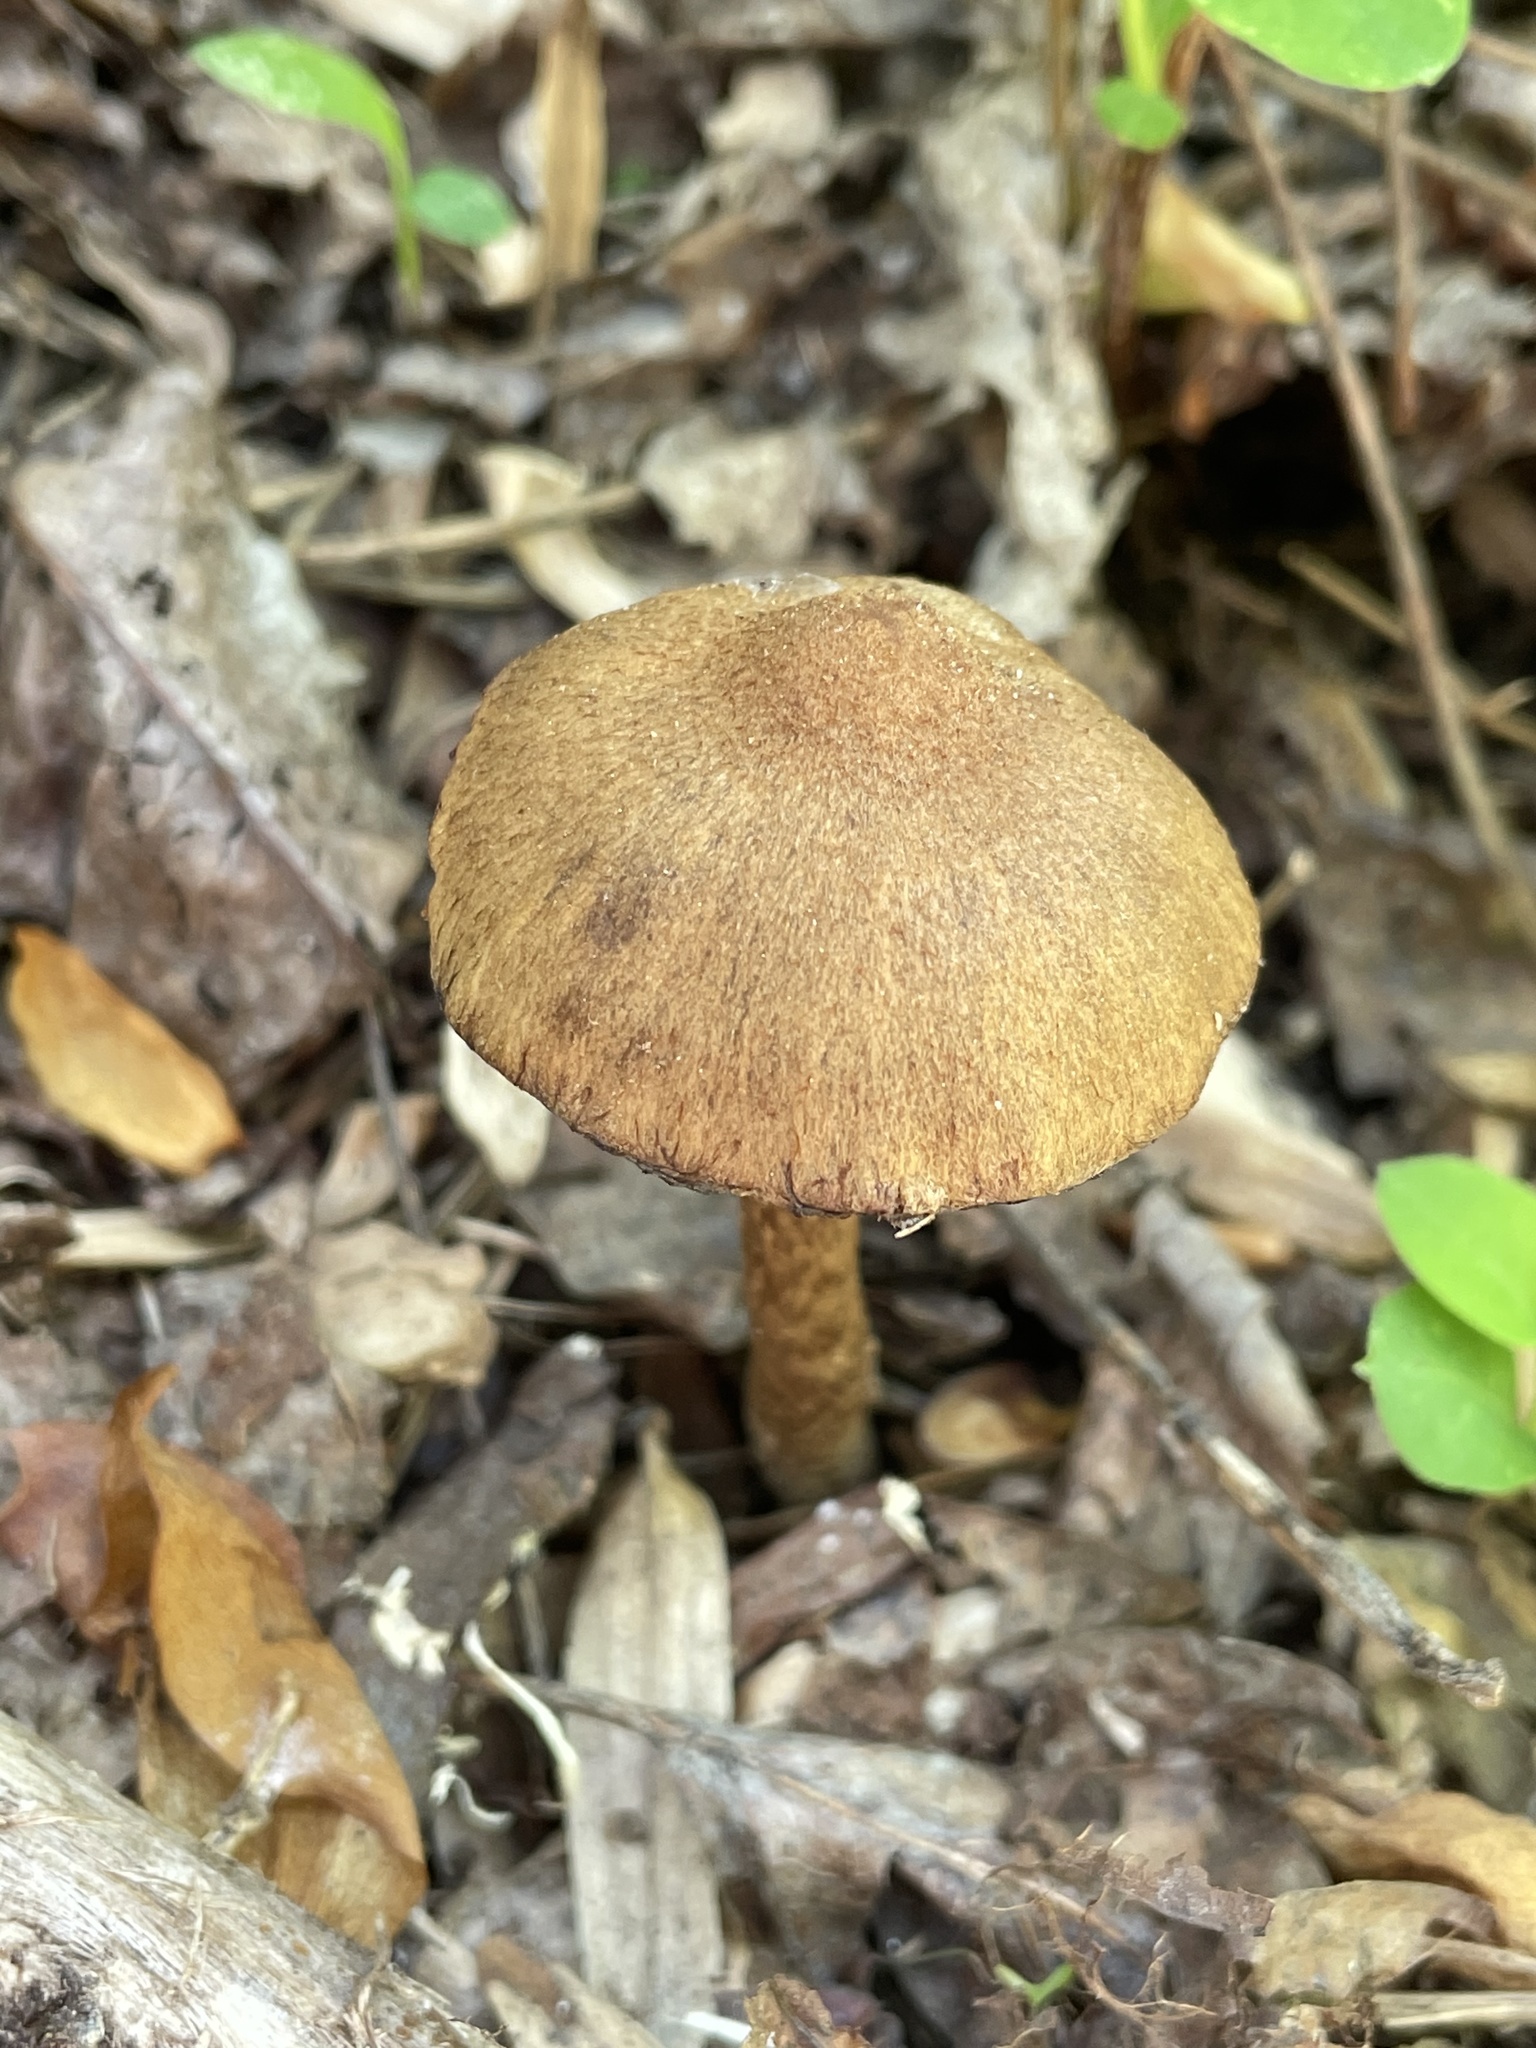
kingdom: Fungi
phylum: Basidiomycota
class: Agaricomycetes
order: Agaricales
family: Psathyrellaceae
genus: Lacrymaria
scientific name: Lacrymaria lacrymabunda
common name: Weeping widow
